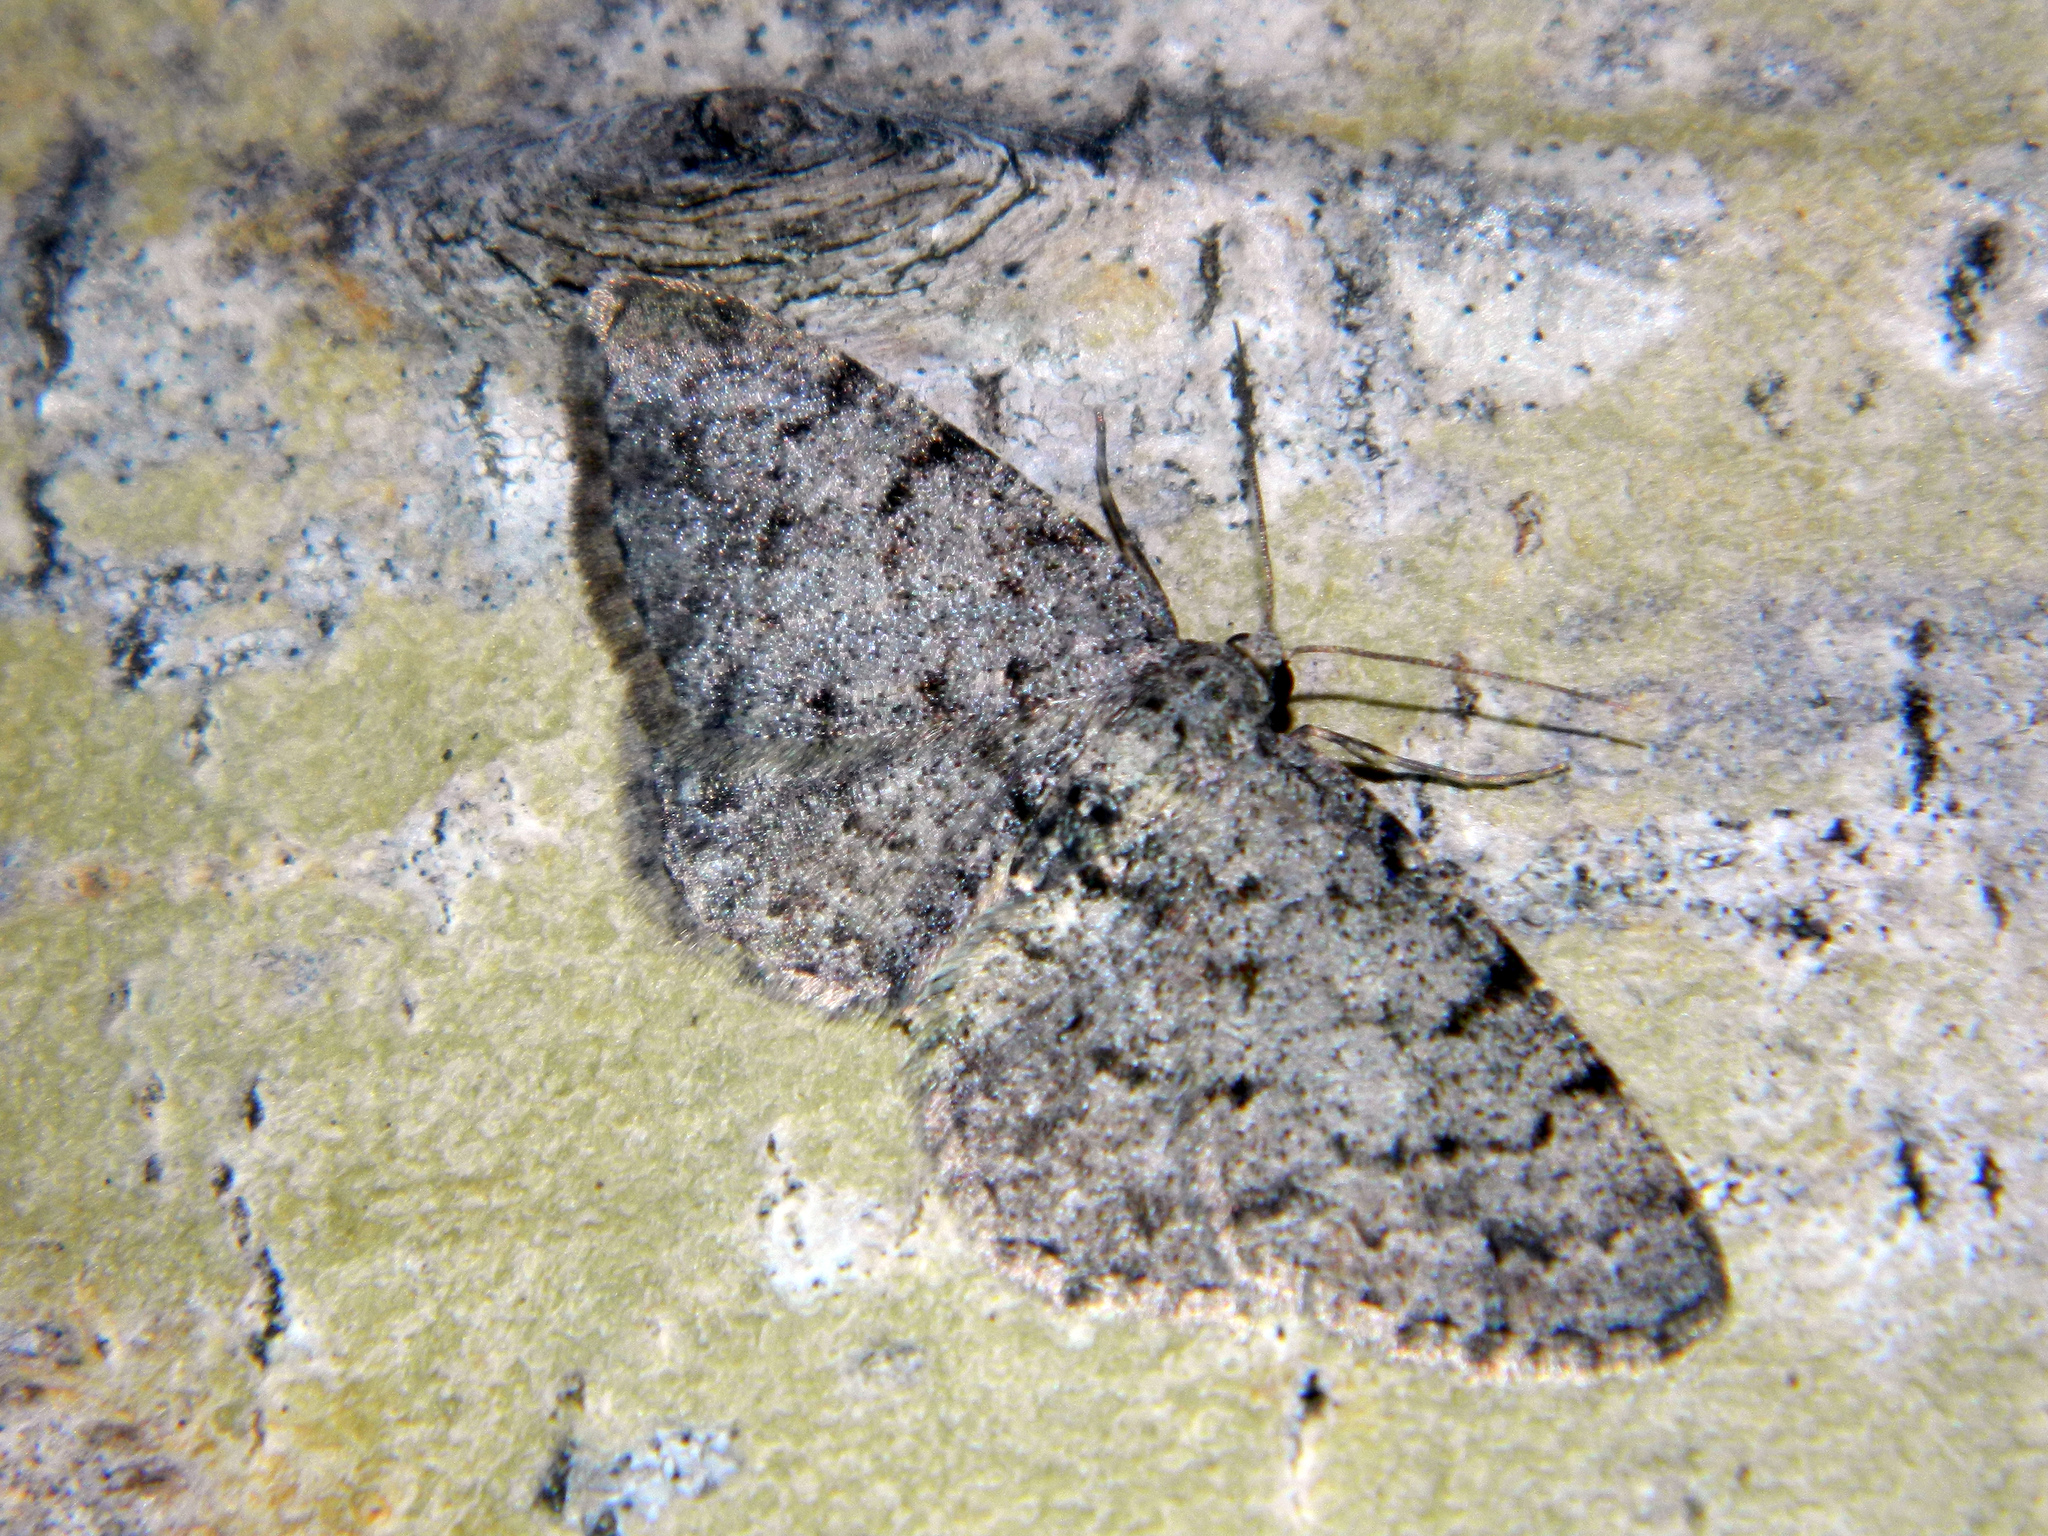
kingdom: Animalia
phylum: Arthropoda
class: Insecta
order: Lepidoptera
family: Geometridae
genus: Aethalura
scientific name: Aethalura intertexta
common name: Four-barred gray
